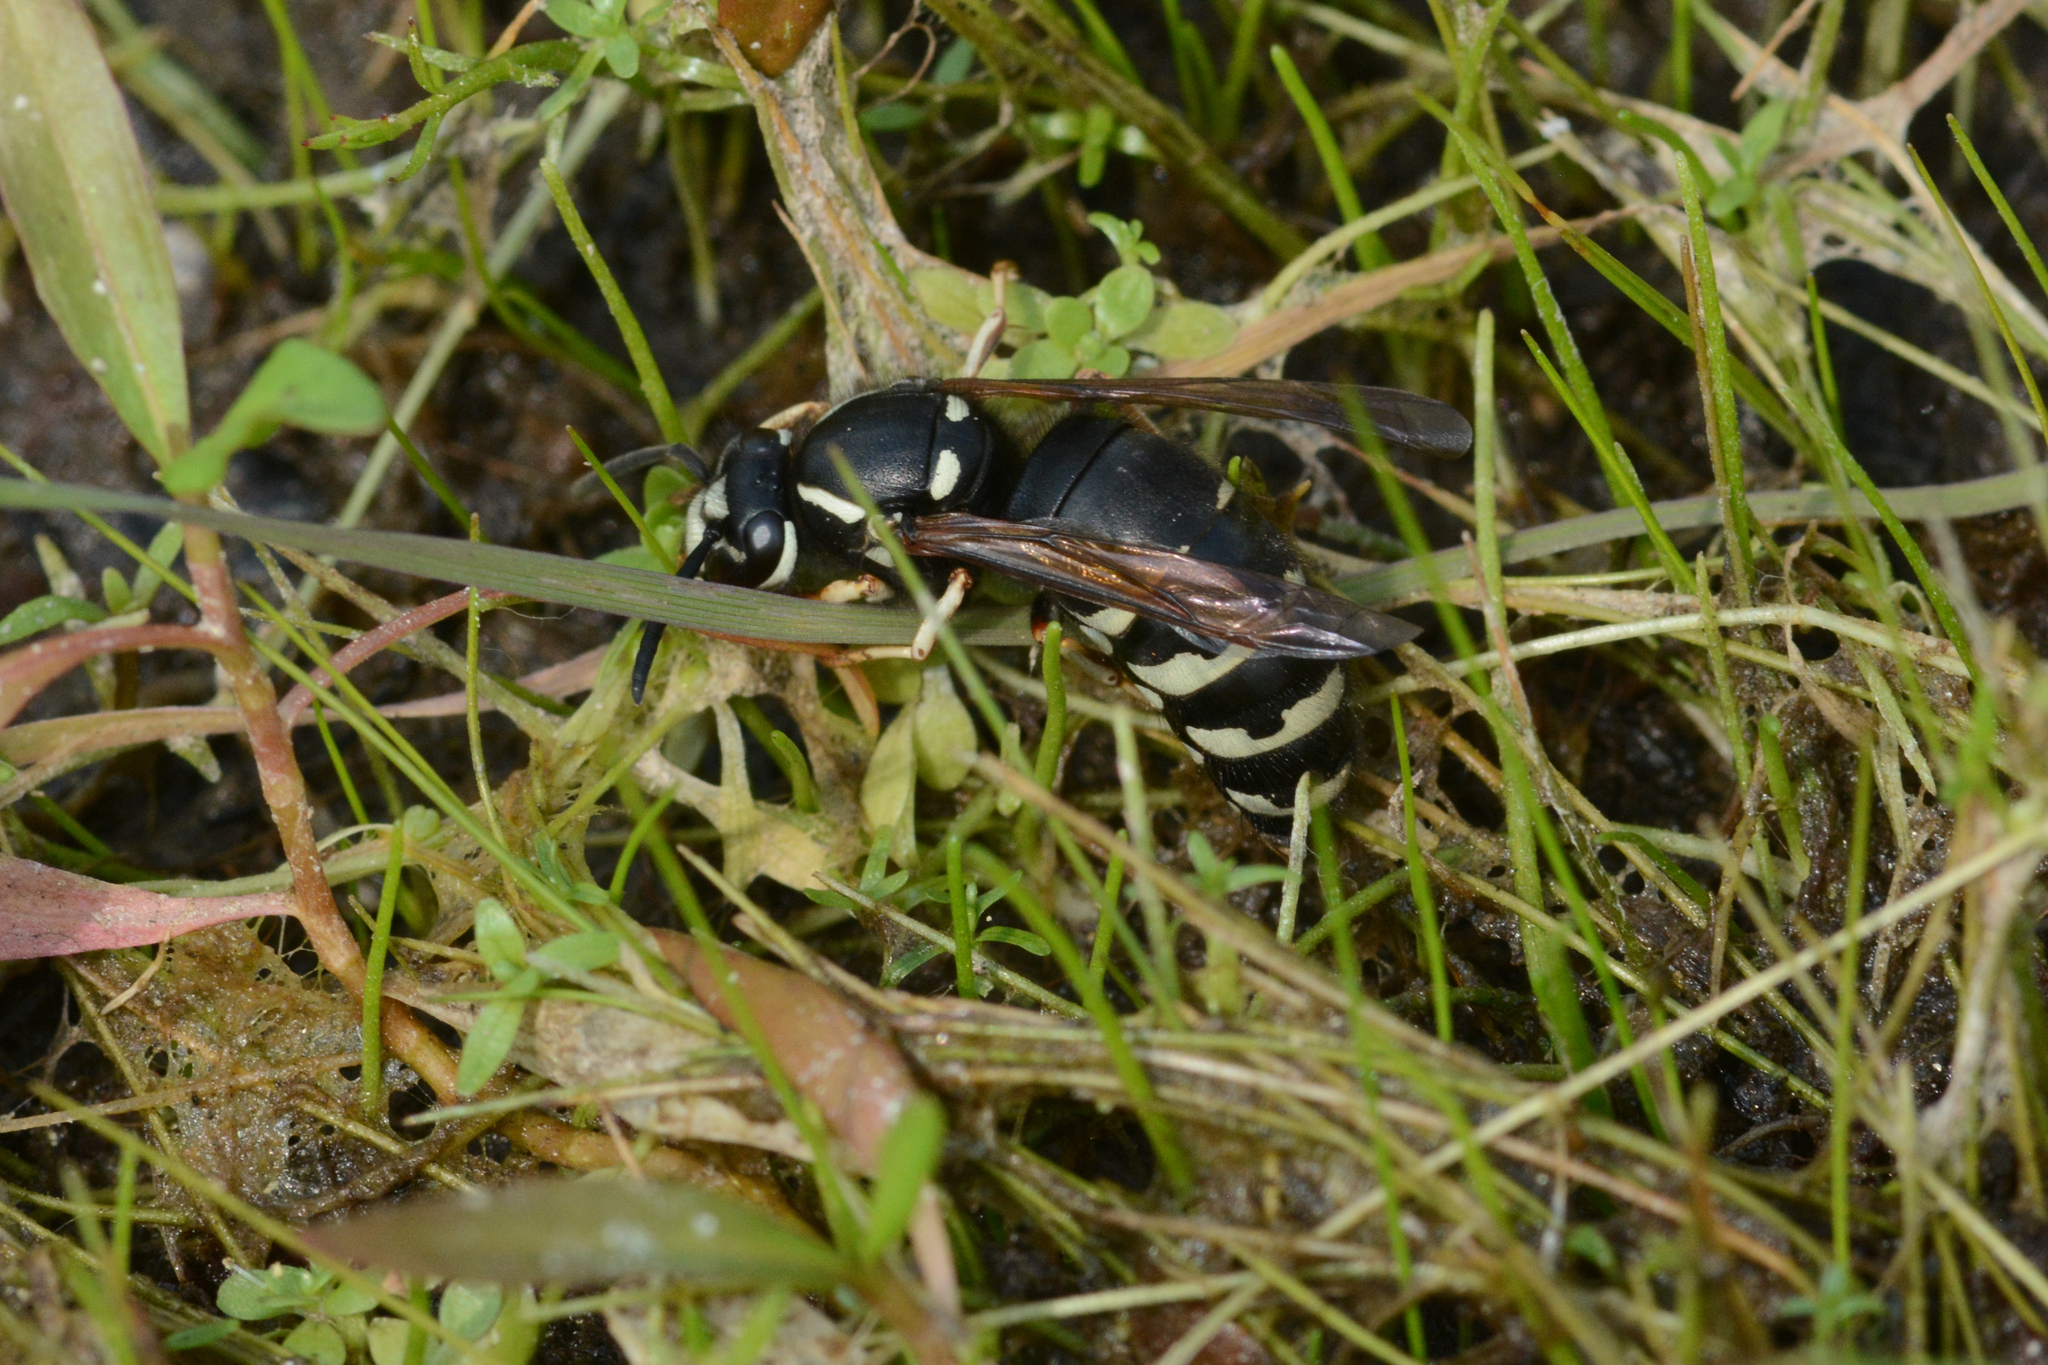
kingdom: Animalia
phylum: Arthropoda
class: Insecta
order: Hymenoptera
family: Vespidae
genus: Vespula
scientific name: Vespula consobrina
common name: Blackjacket
